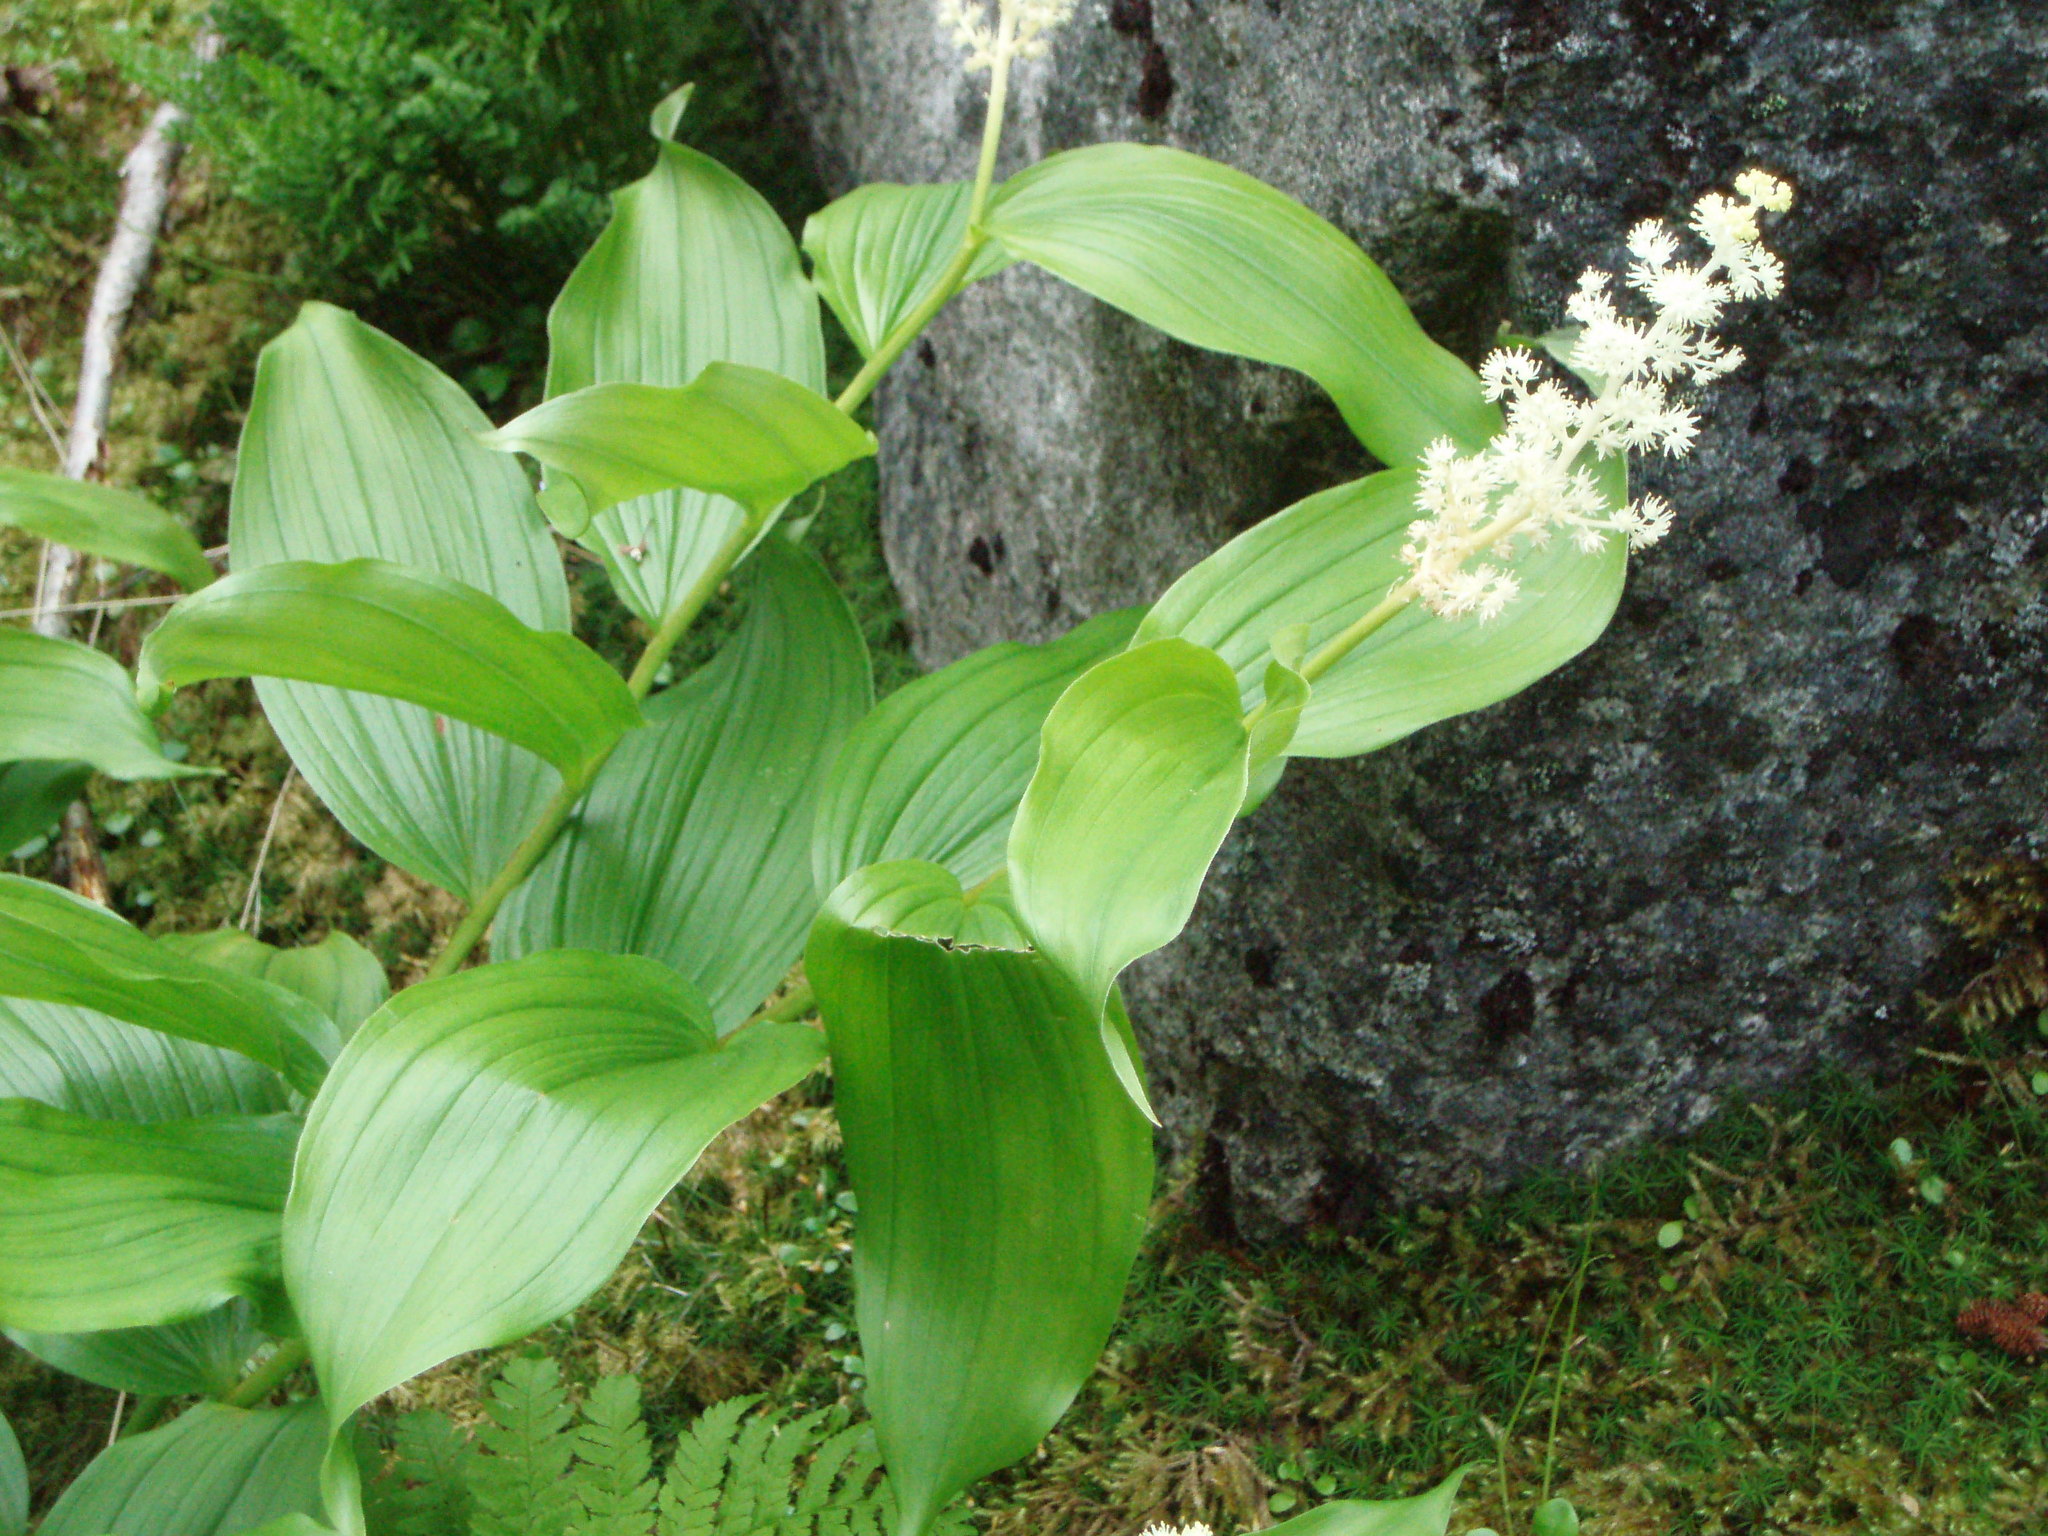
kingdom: Plantae
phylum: Tracheophyta
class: Liliopsida
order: Asparagales
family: Asparagaceae
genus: Maianthemum
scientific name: Maianthemum racemosum
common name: False spikenard
